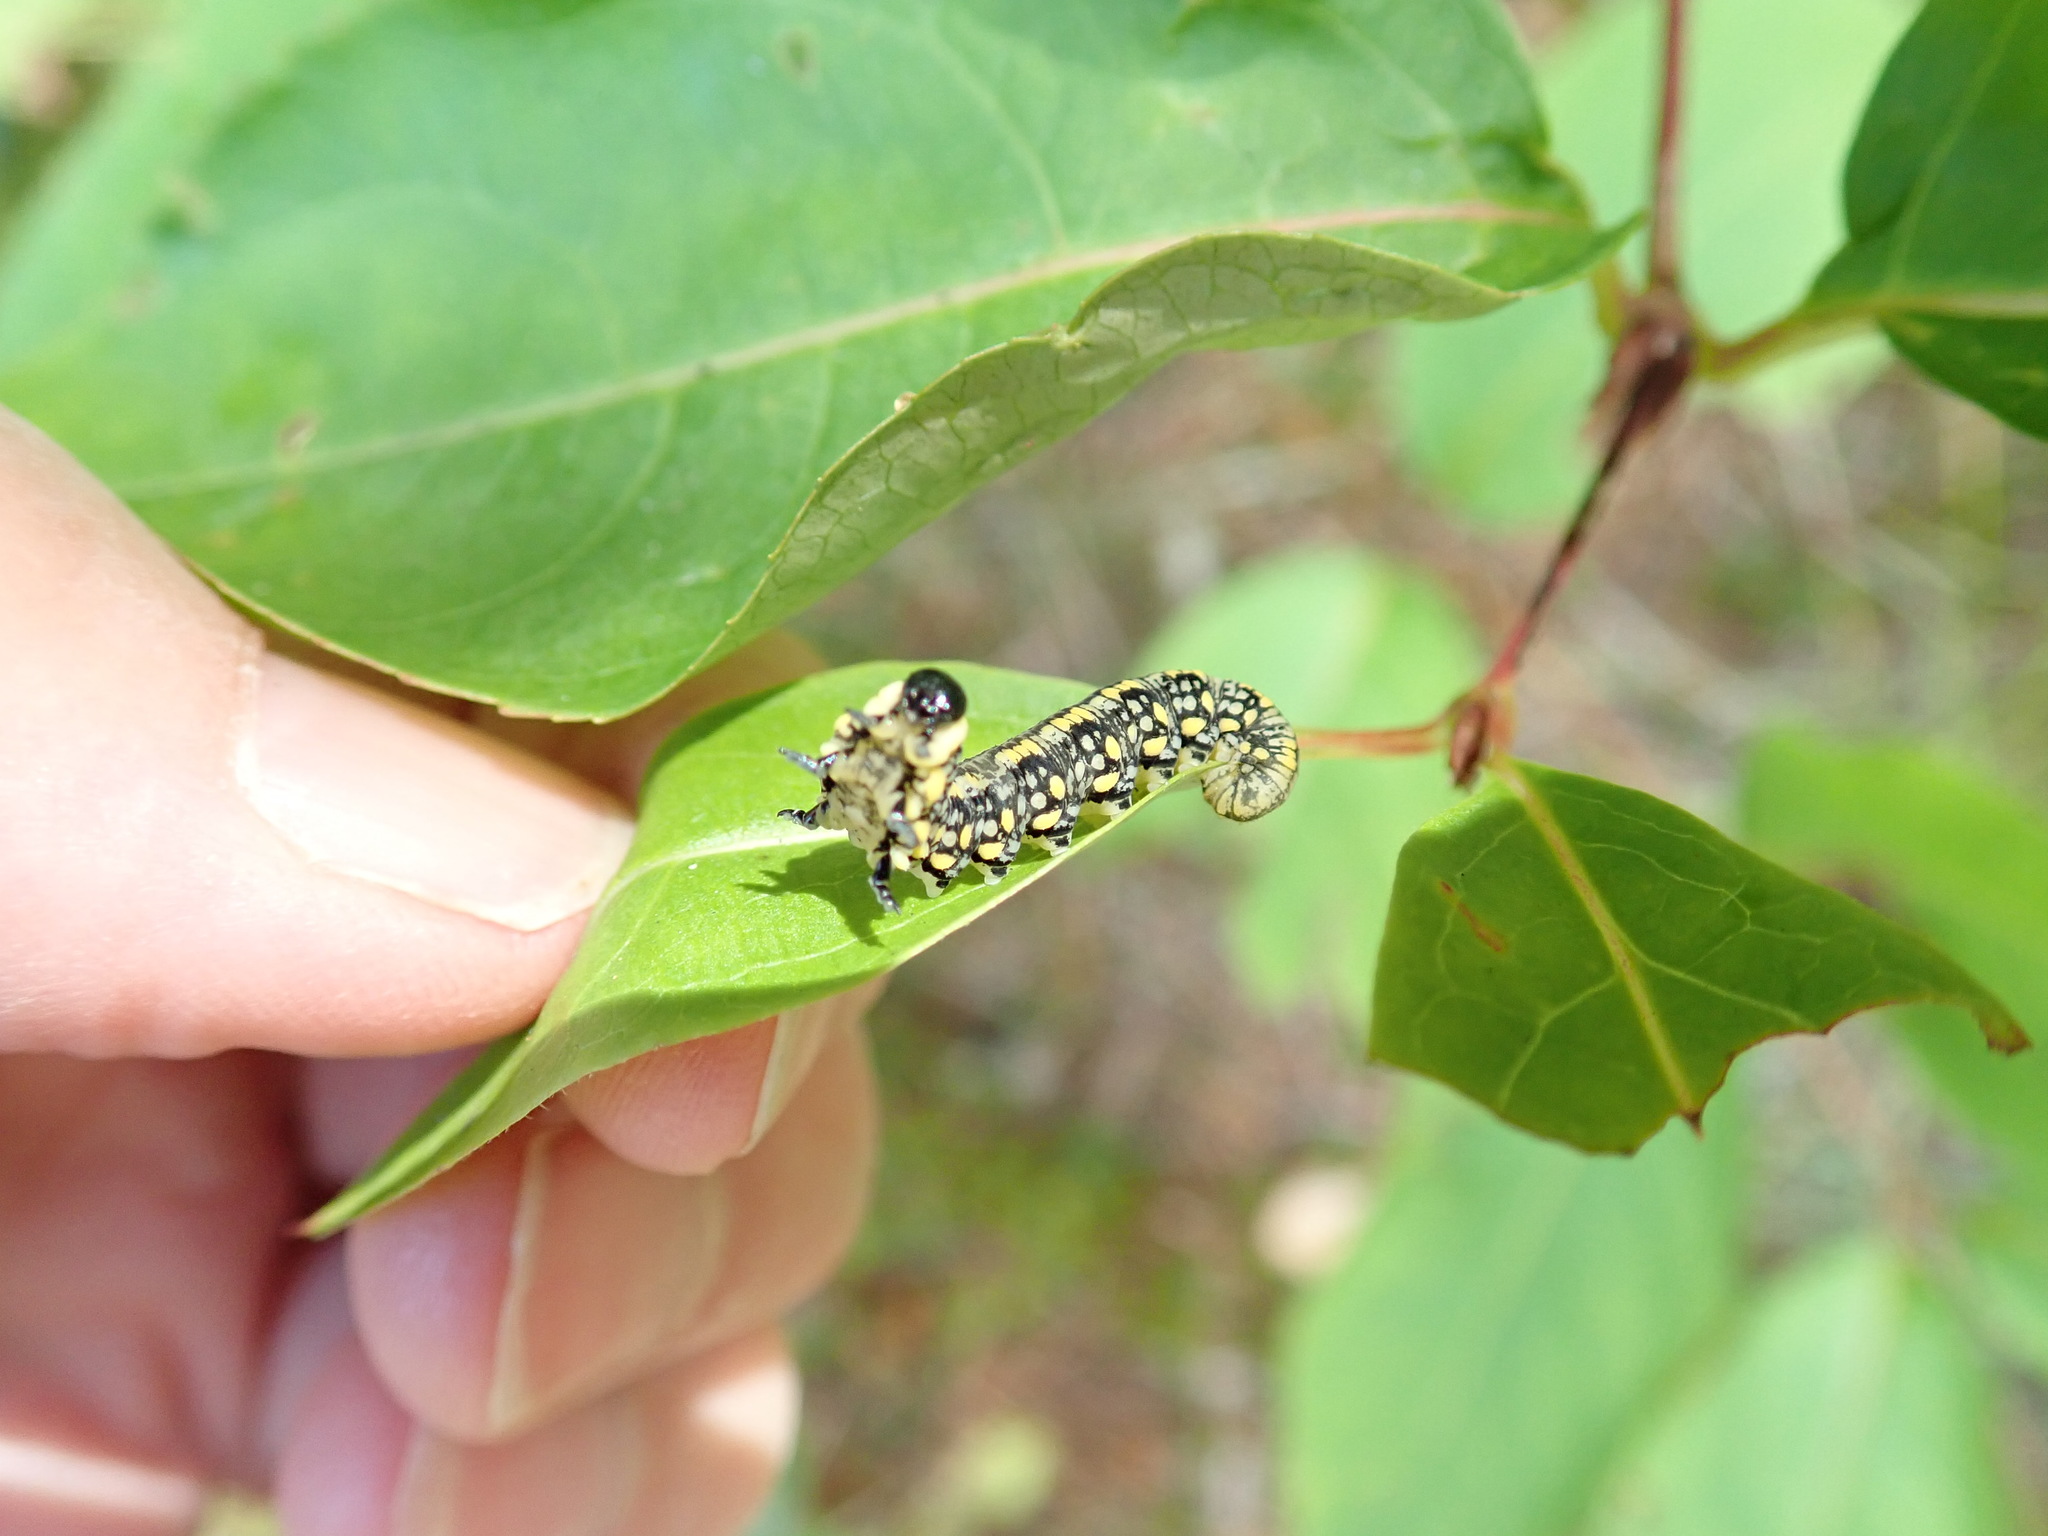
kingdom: Animalia
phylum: Arthropoda
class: Insecta
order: Hymenoptera
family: Diprionidae
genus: Diprion
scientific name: Diprion similis
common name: Pine sawfly
